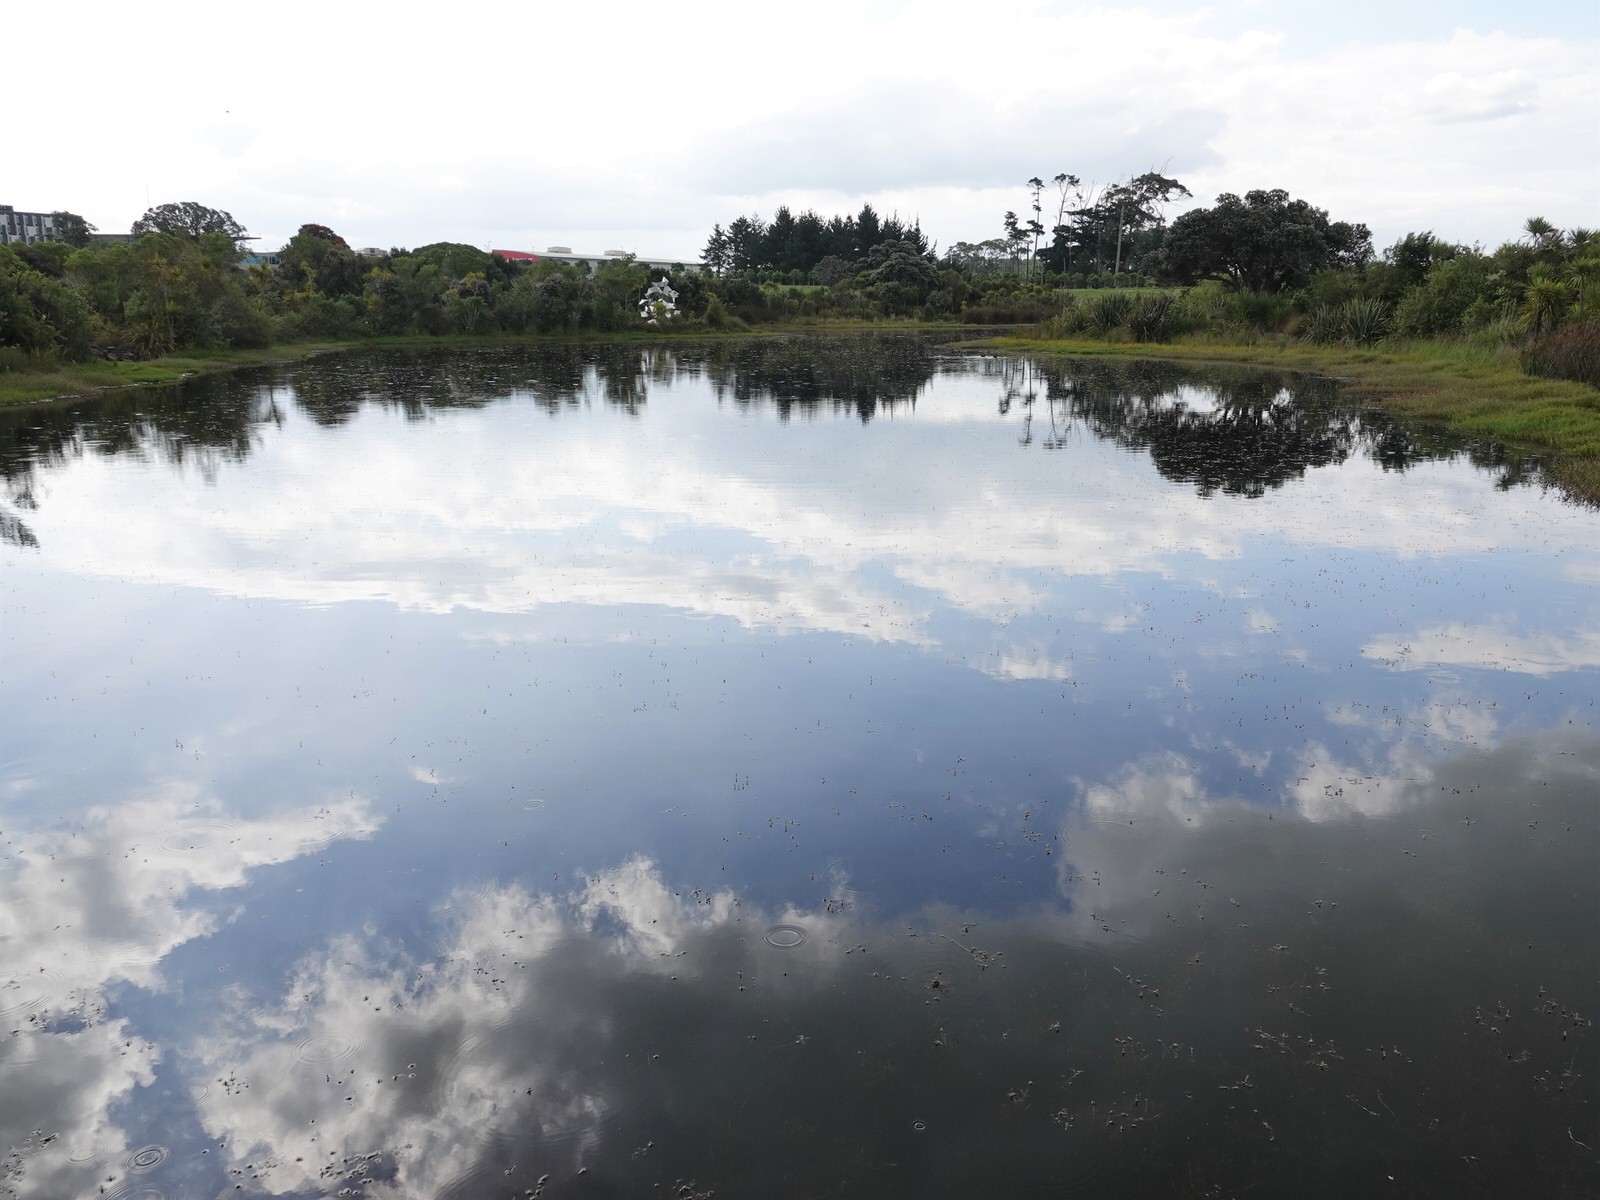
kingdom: Animalia
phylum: Arthropoda
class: Insecta
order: Odonata
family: Aeshnidae
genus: Anax
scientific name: Anax papuensis
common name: Australian emperor
